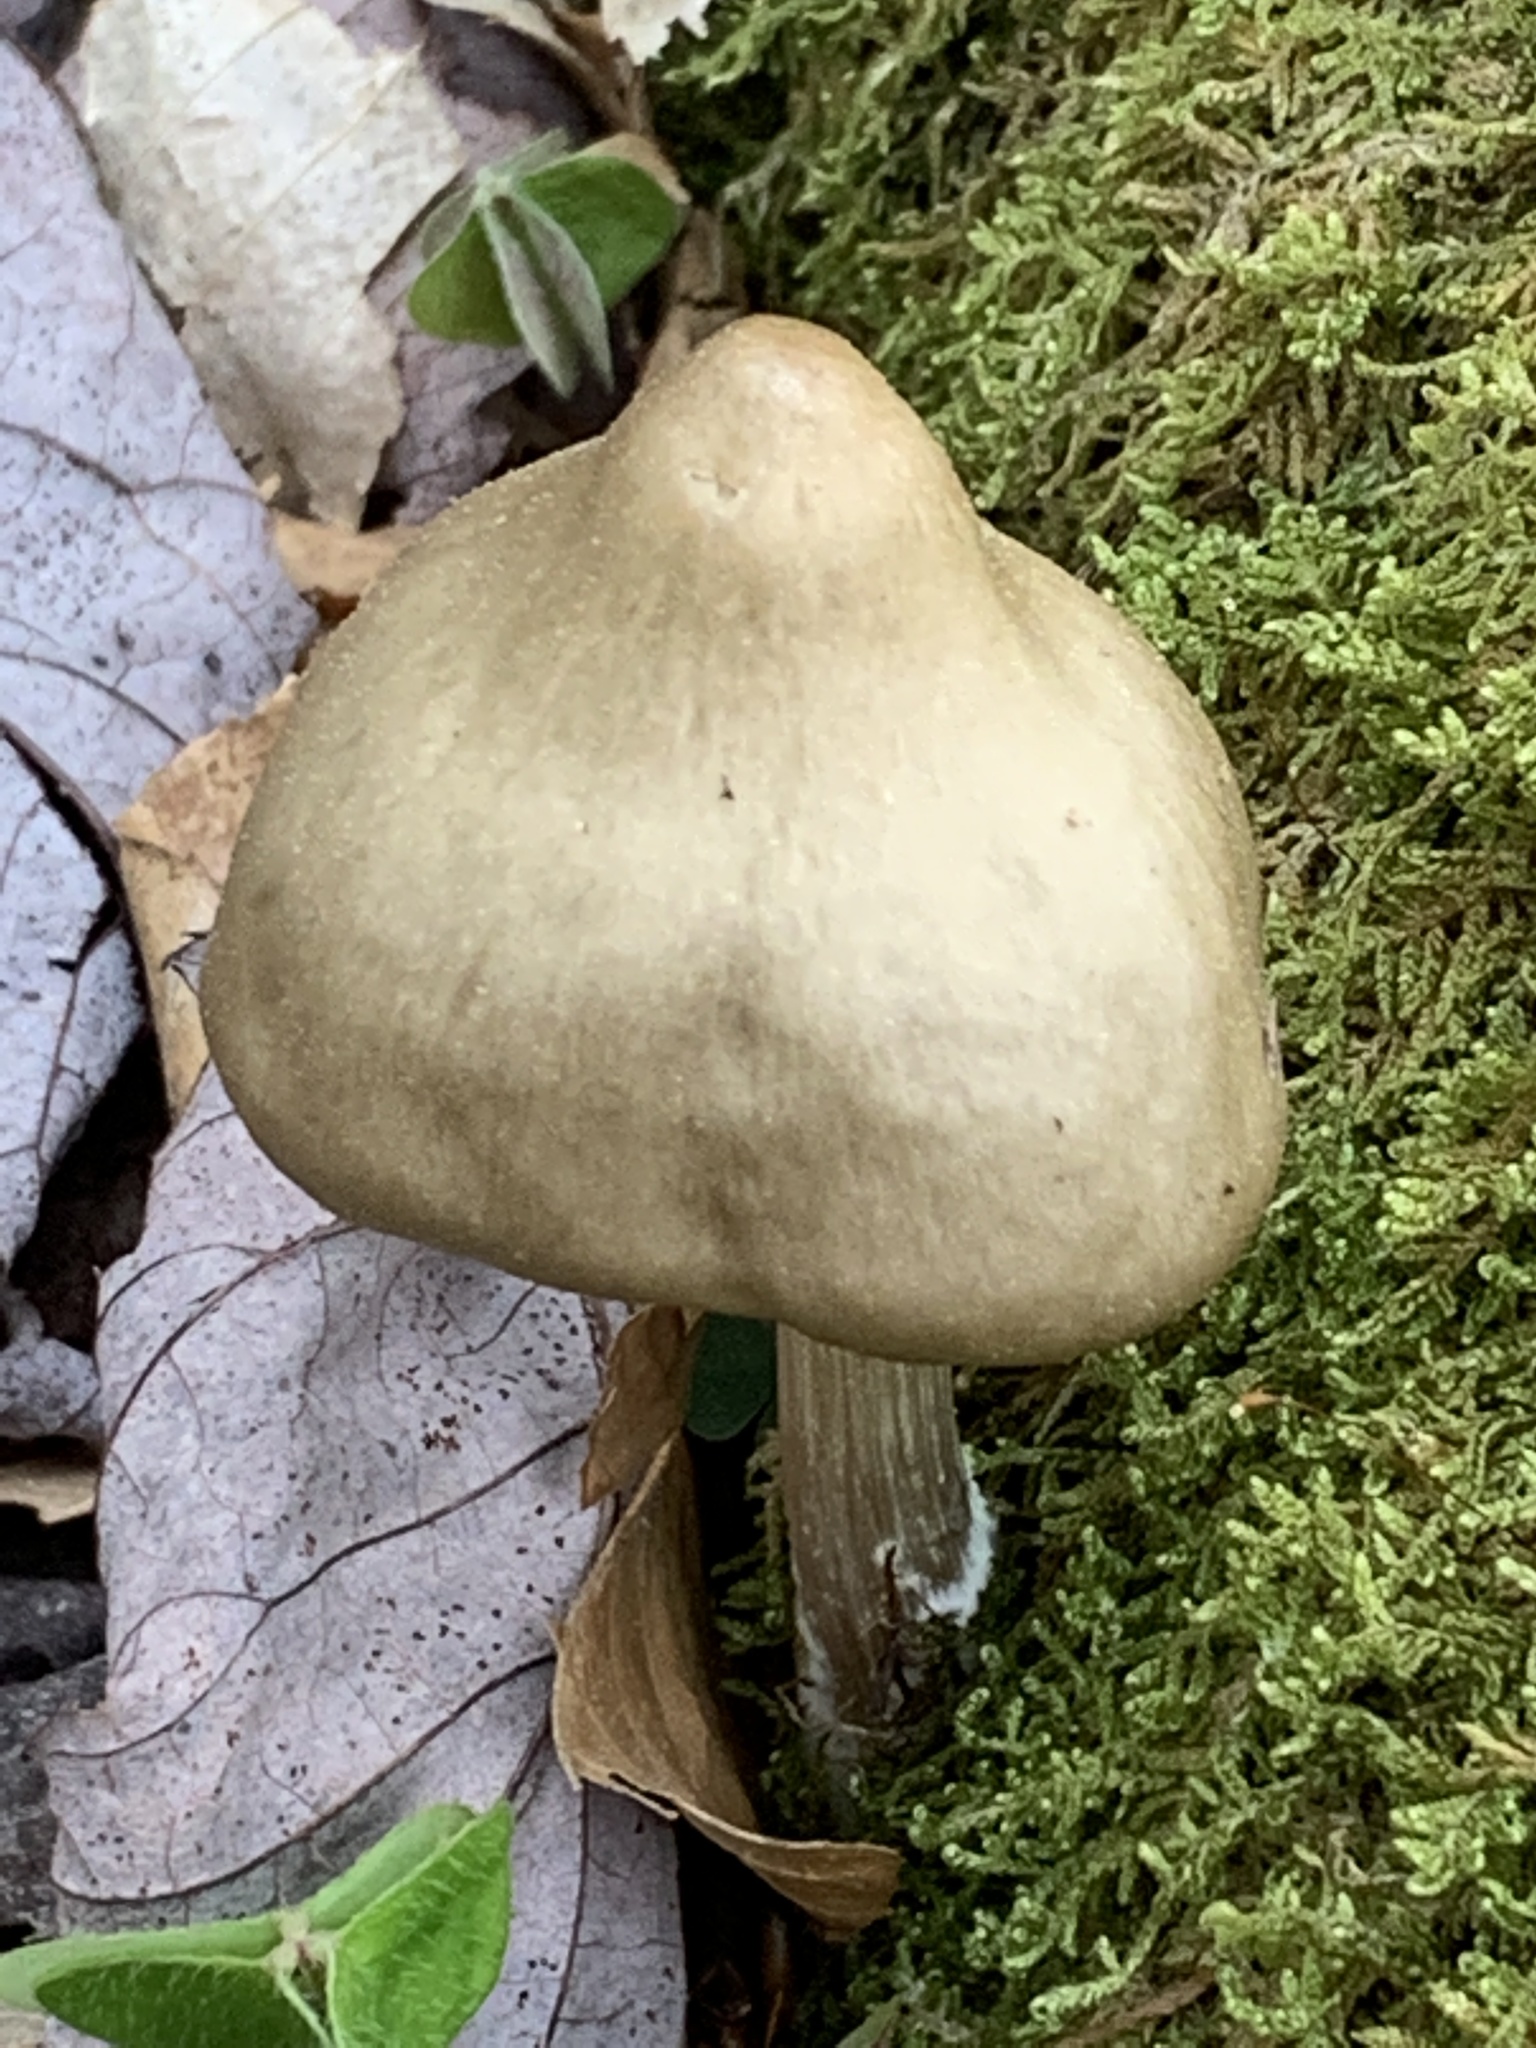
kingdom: Fungi
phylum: Basidiomycota
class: Agaricomycetes
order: Agaricales
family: Pluteaceae
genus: Pluteus
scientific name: Pluteus cervinus
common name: Deer shield
